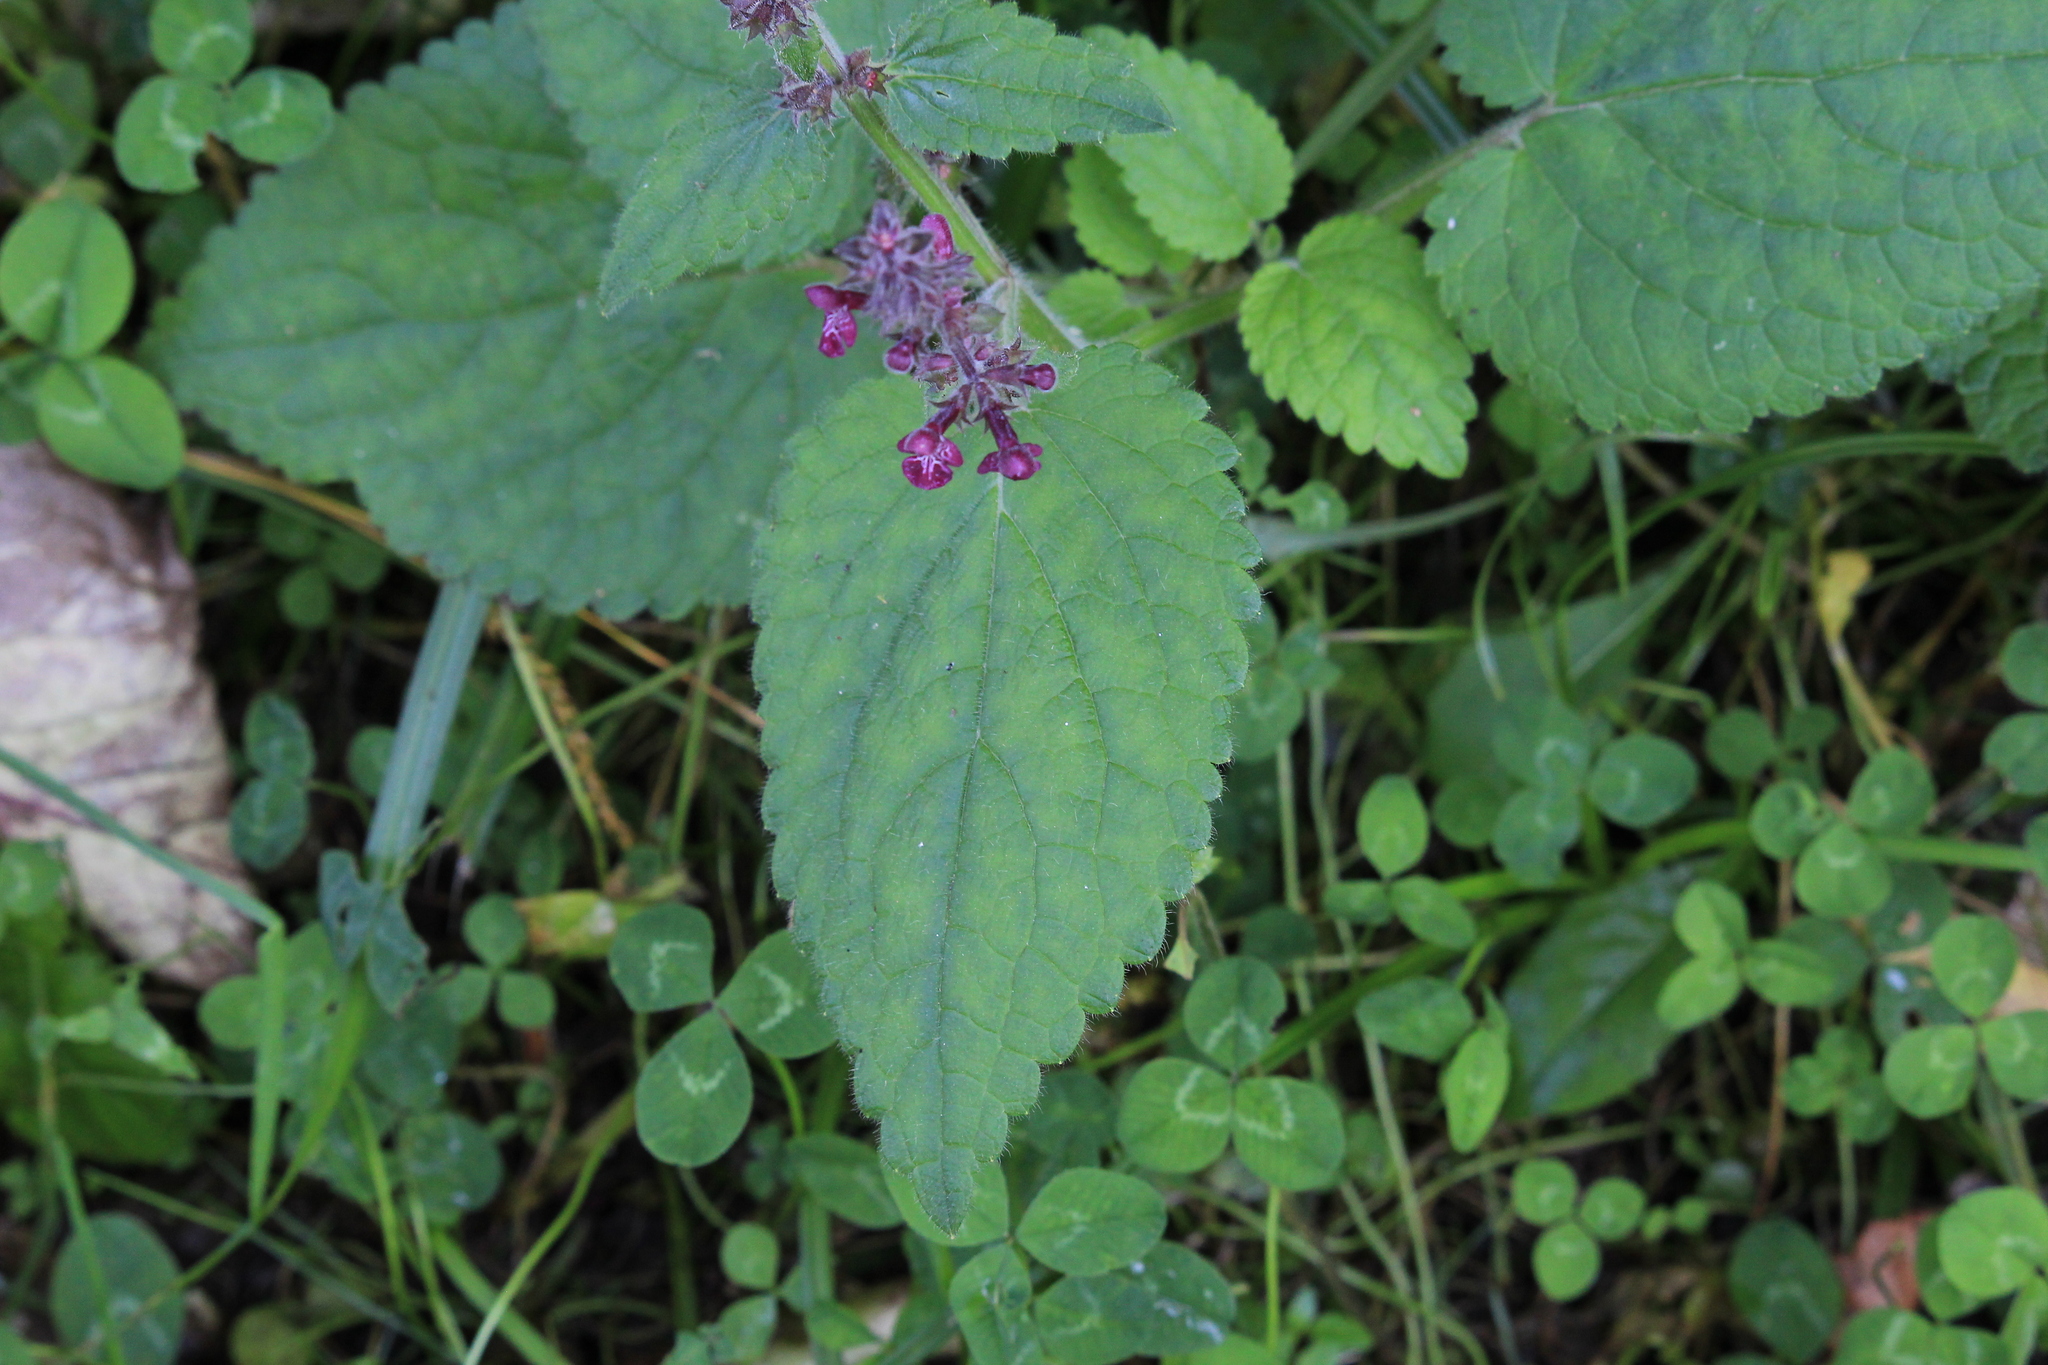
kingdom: Plantae
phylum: Tracheophyta
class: Magnoliopsida
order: Lamiales
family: Lamiaceae
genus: Stachys
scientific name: Stachys sylvatica
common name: Hedge woundwort
